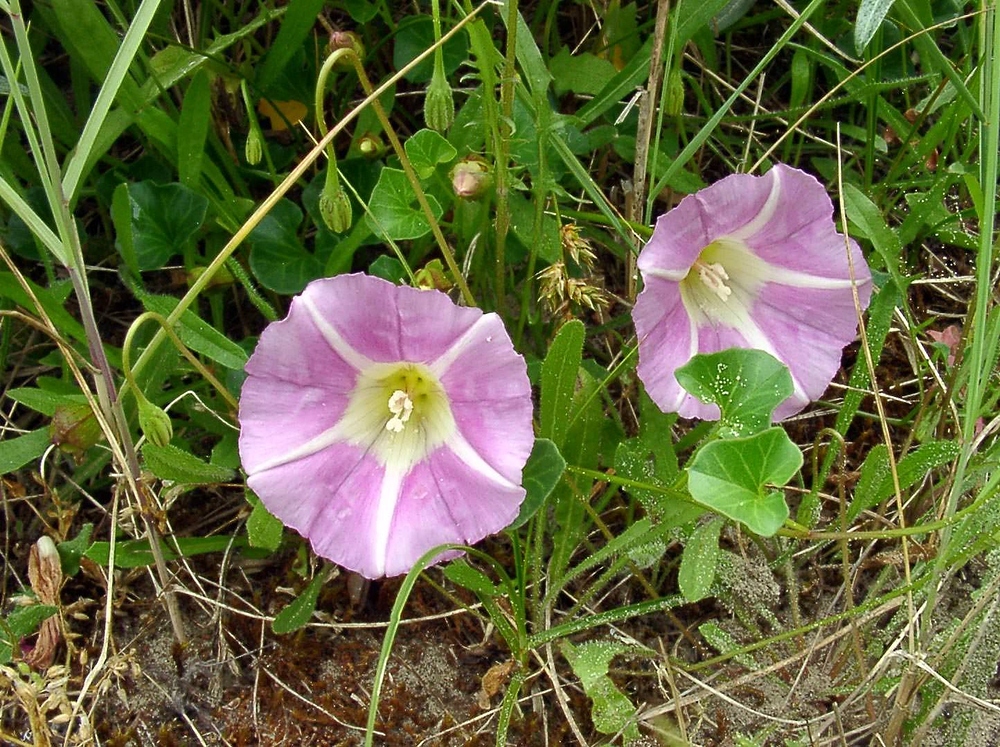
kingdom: Plantae
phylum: Tracheophyta
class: Magnoliopsida
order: Solanales
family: Convolvulaceae
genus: Calystegia
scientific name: Calystegia soldanella
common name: Sea bindweed
